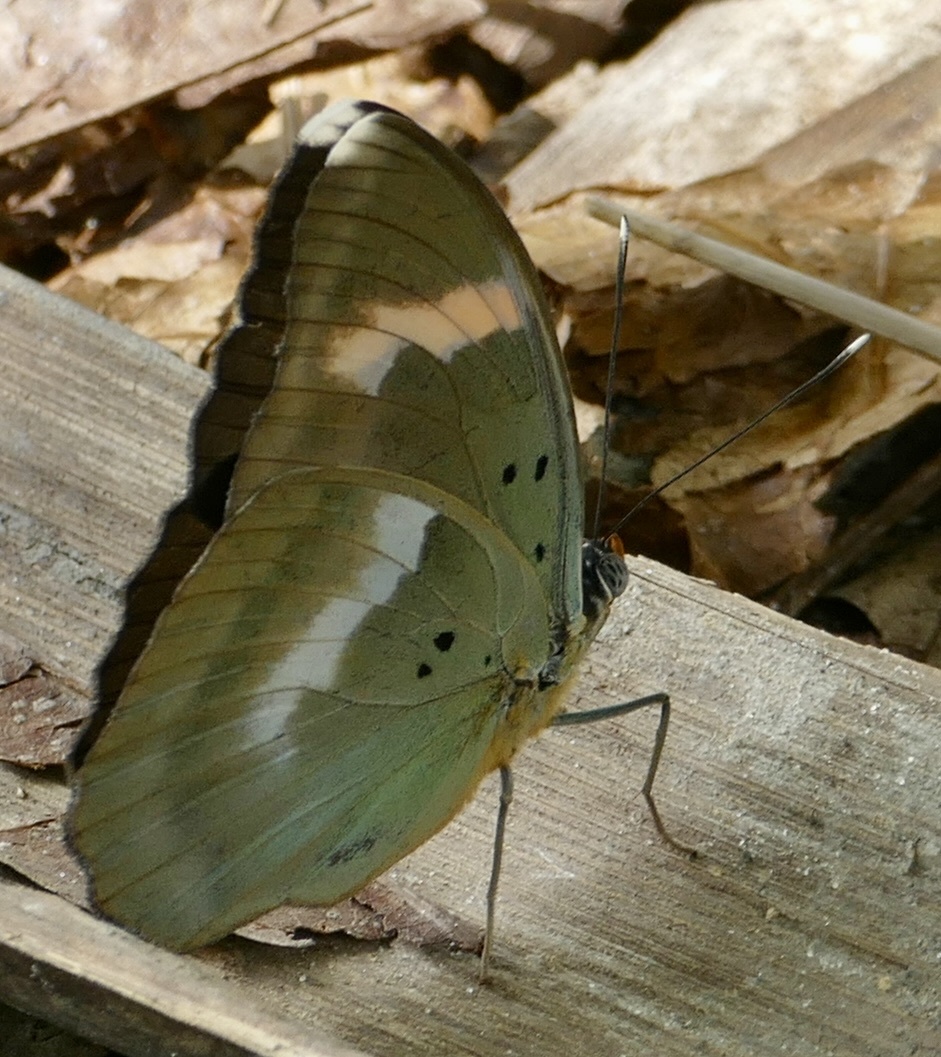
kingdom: Animalia
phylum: Arthropoda
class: Insecta
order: Lepidoptera
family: Nymphalidae
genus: Euphaedra
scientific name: Euphaedra medon
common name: Widespread forester
